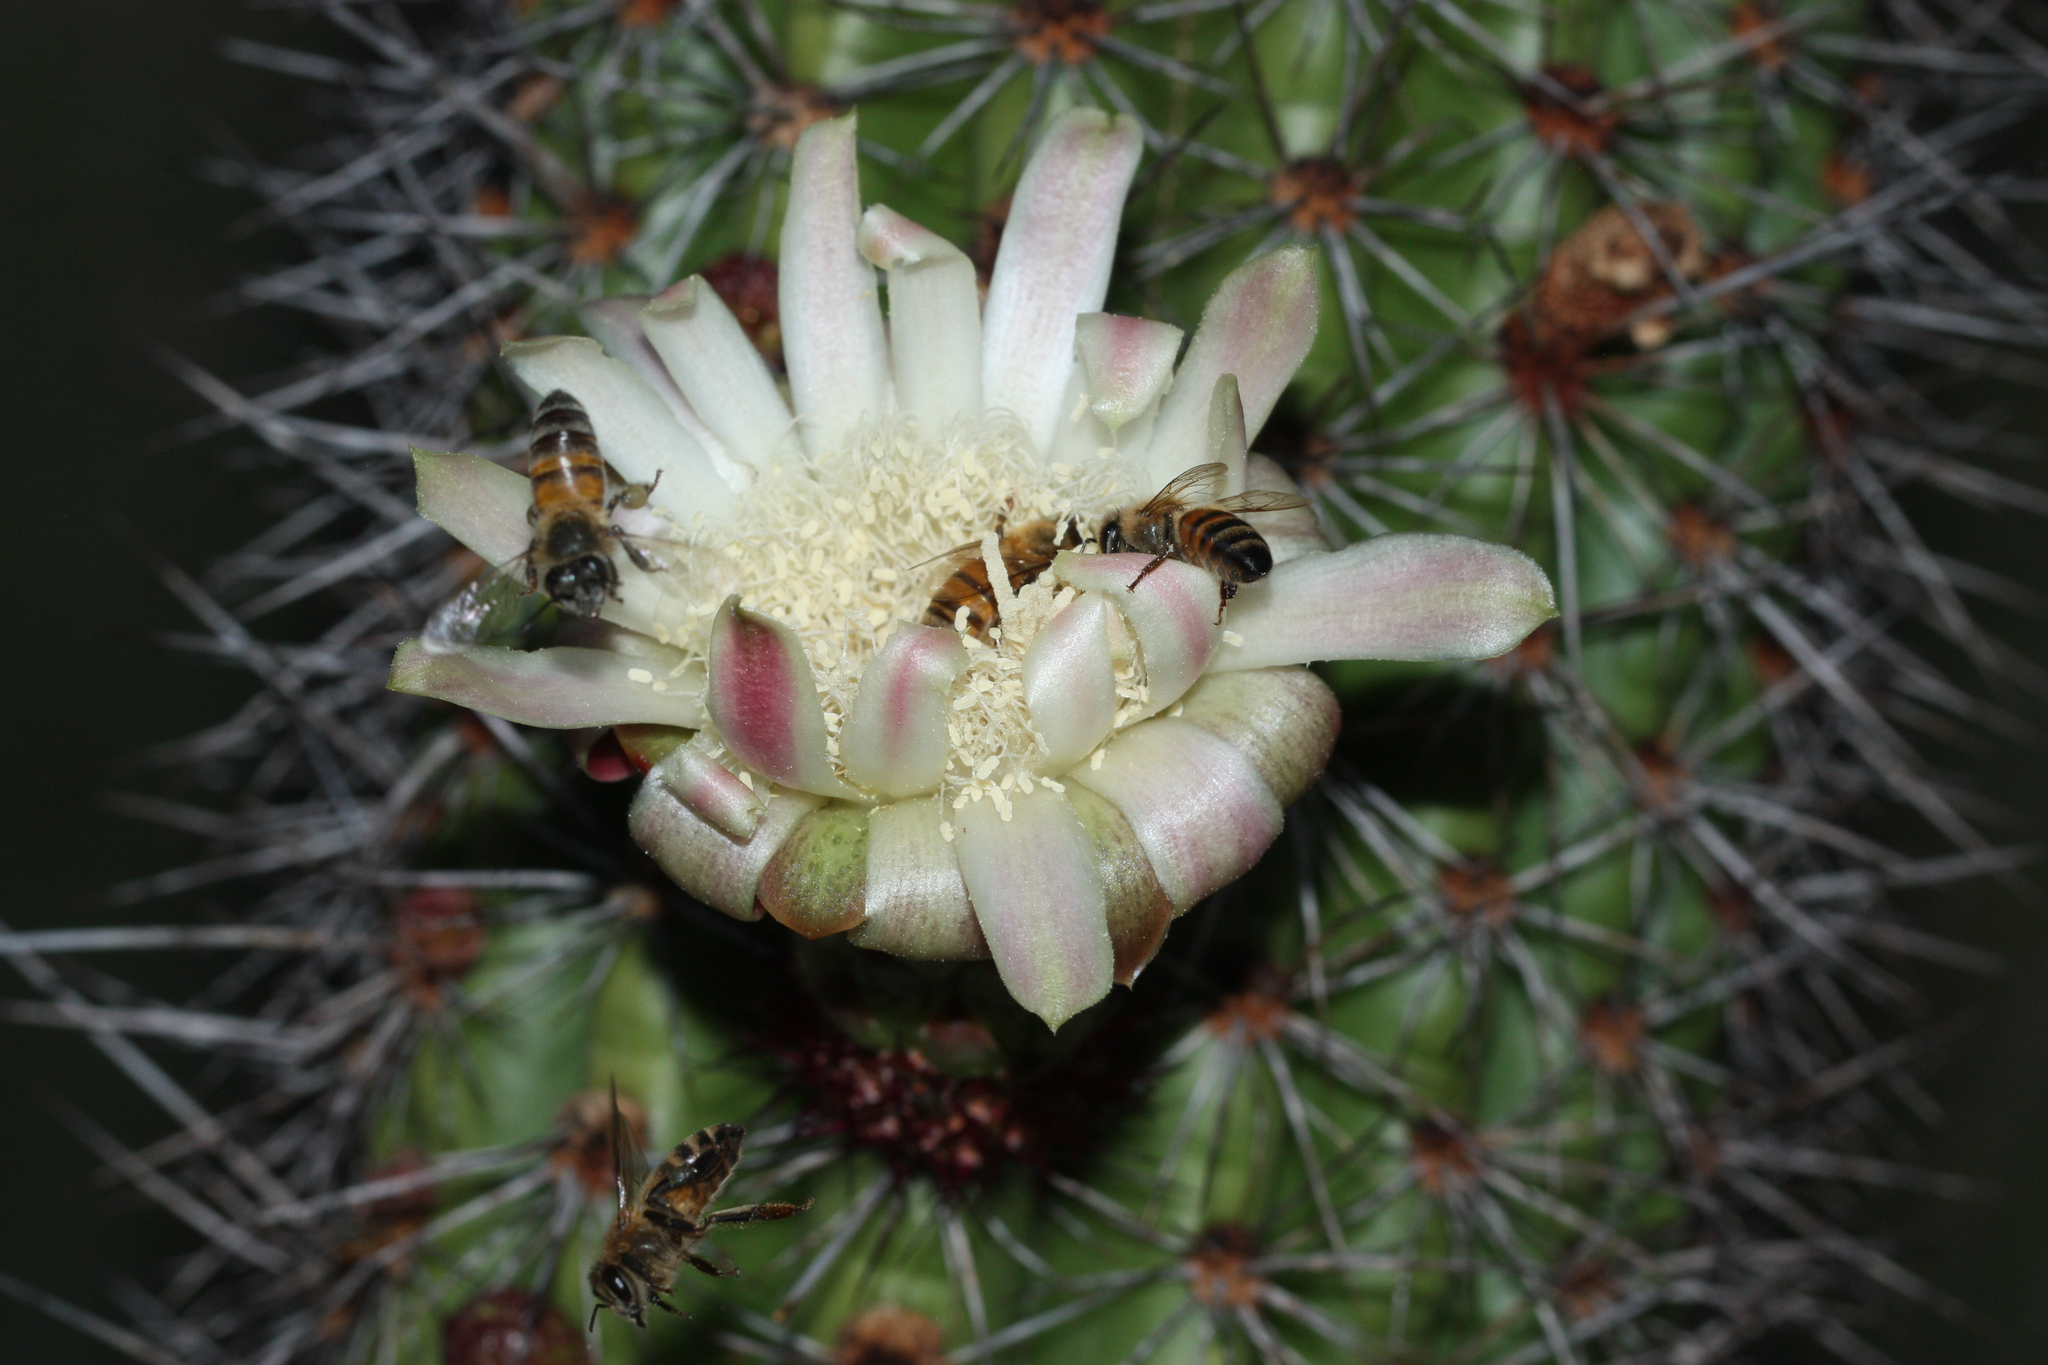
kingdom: Animalia
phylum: Arthropoda
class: Insecta
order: Hymenoptera
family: Apidae
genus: Apis
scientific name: Apis mellifera
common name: Honey bee
